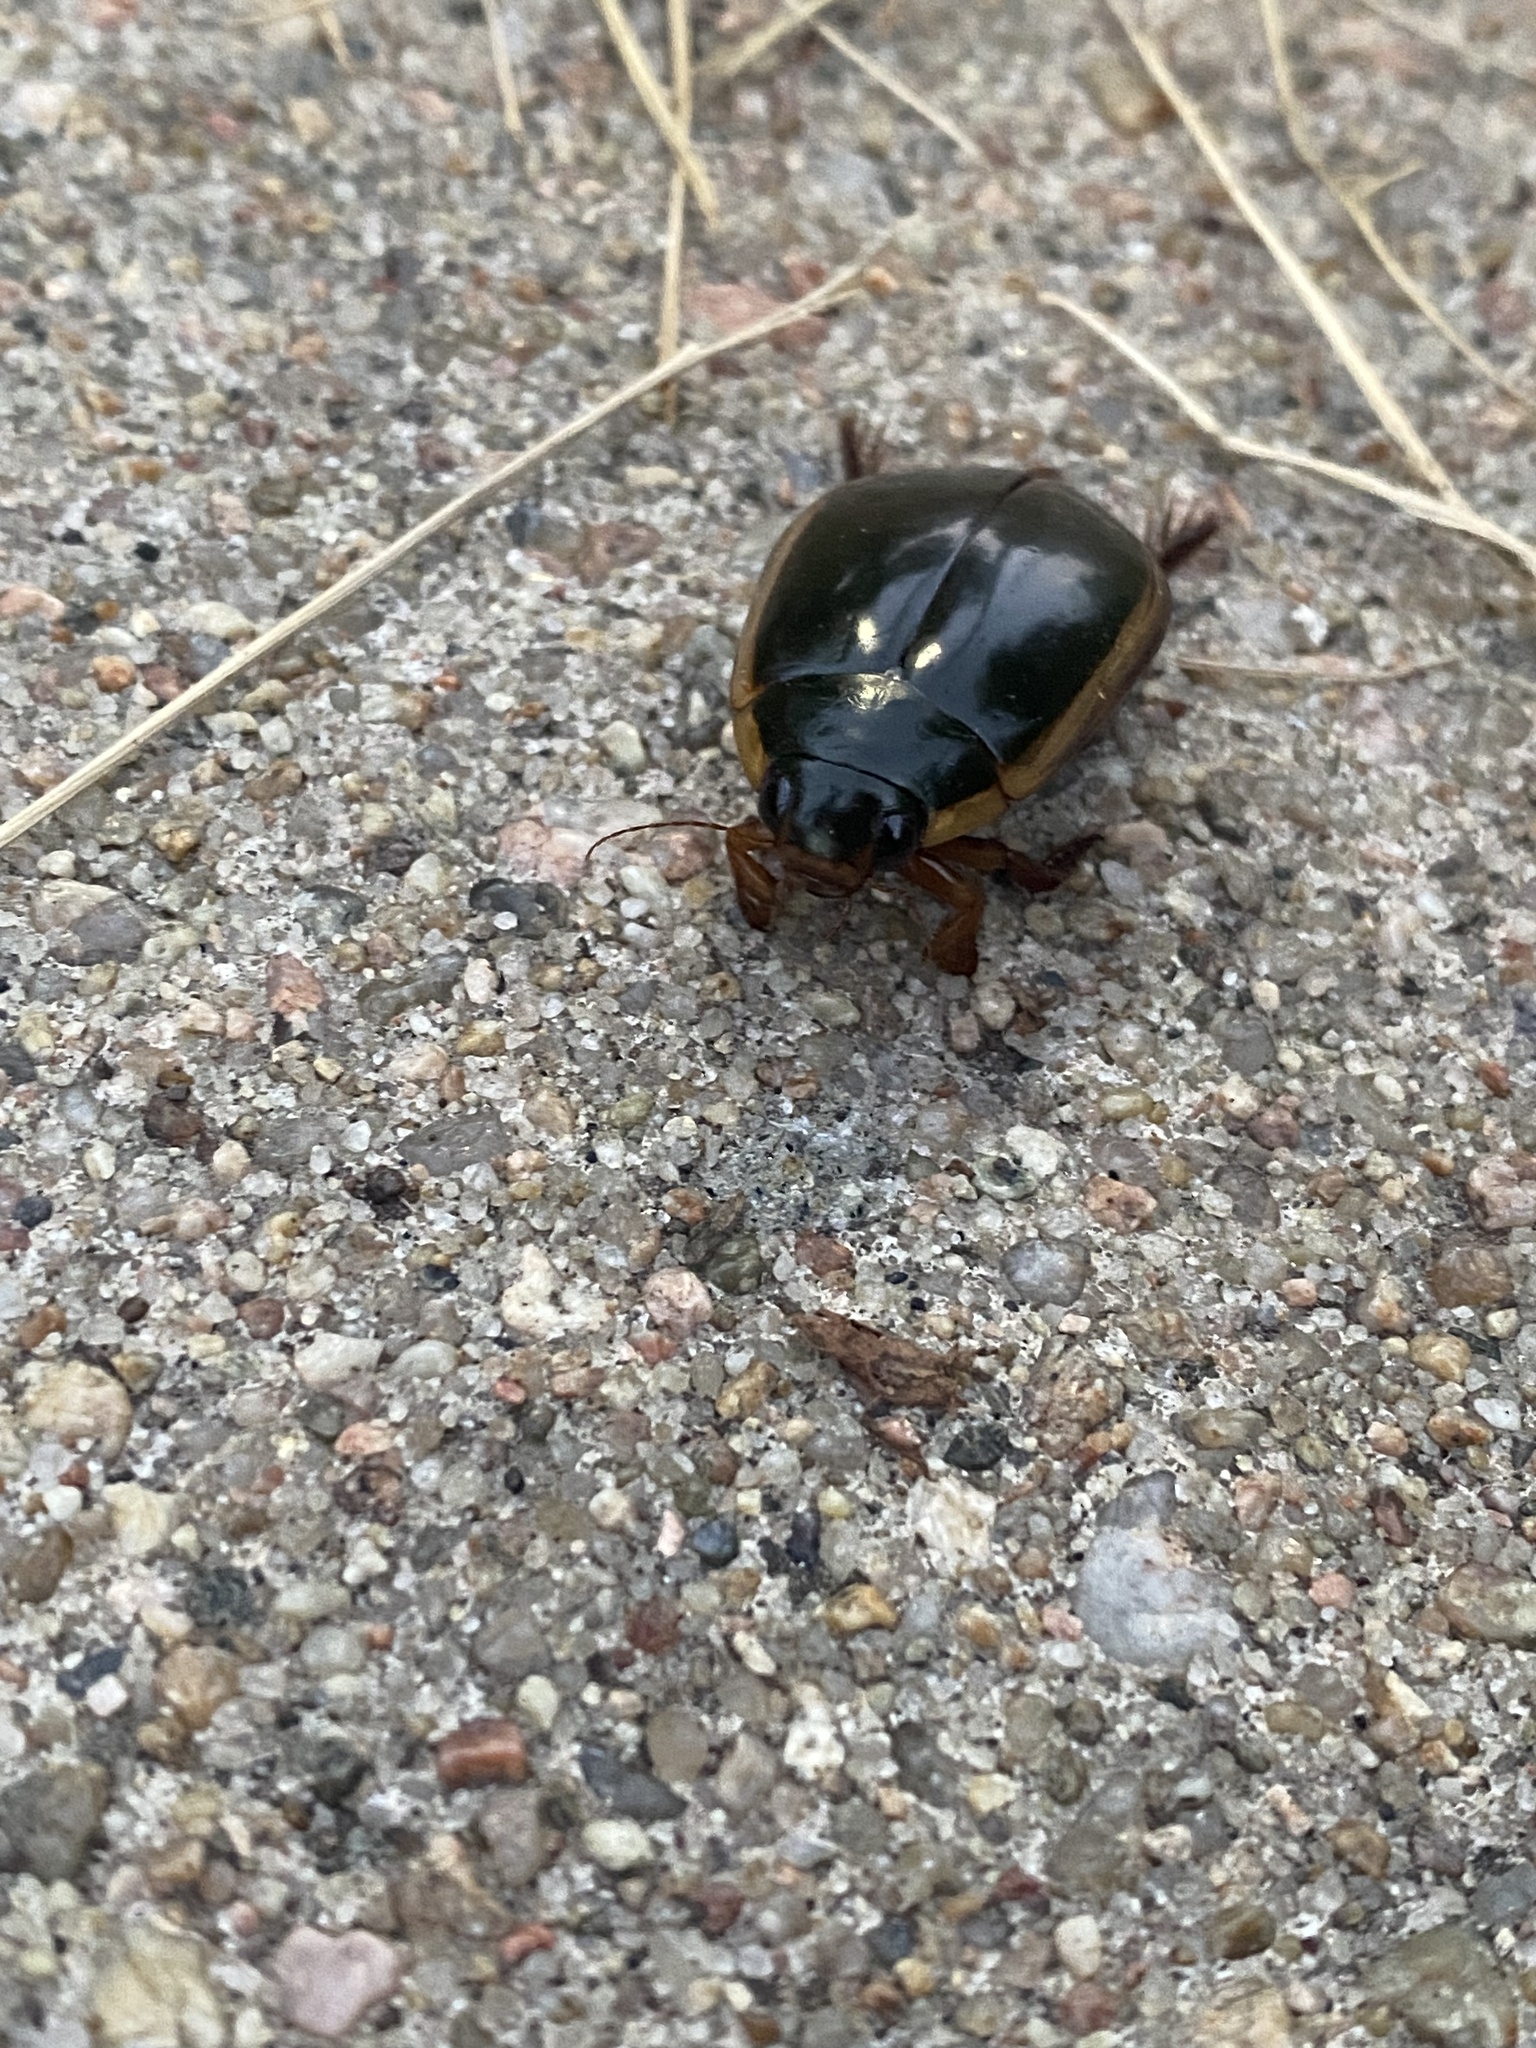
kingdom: Animalia
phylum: Arthropoda
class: Insecta
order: Coleoptera
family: Dytiscidae
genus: Cybister
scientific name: Cybister fimbriolatus
